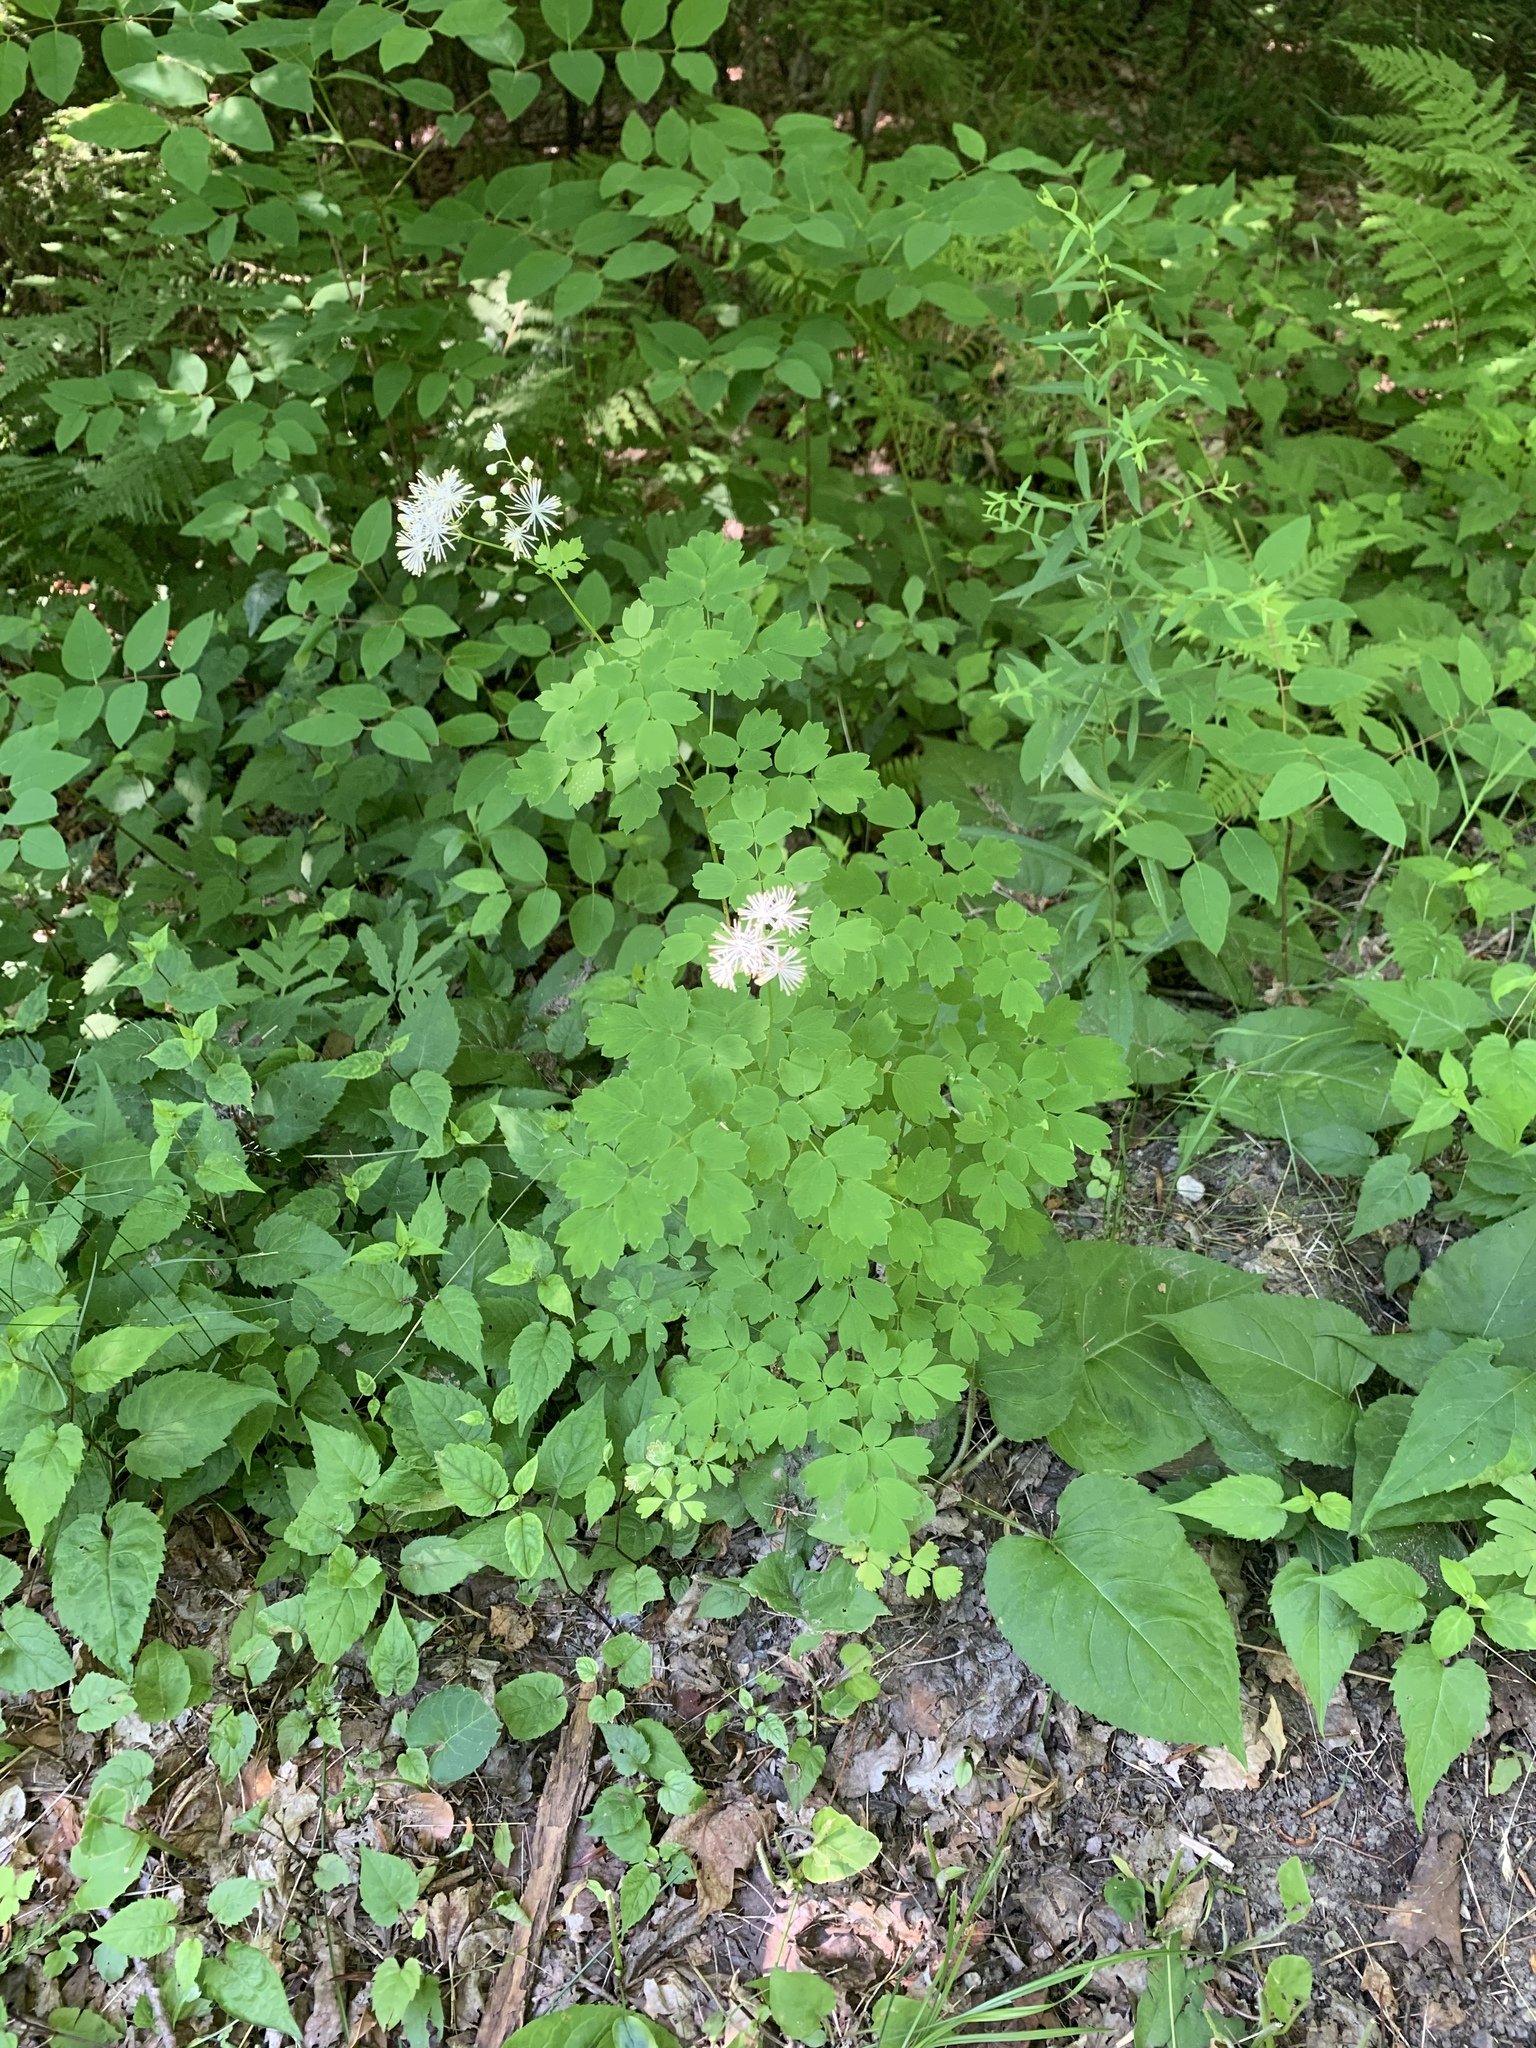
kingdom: Plantae
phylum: Tracheophyta
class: Magnoliopsida
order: Ranunculales
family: Ranunculaceae
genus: Thalictrum
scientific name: Thalictrum pubescens
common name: King-of-the-meadow
